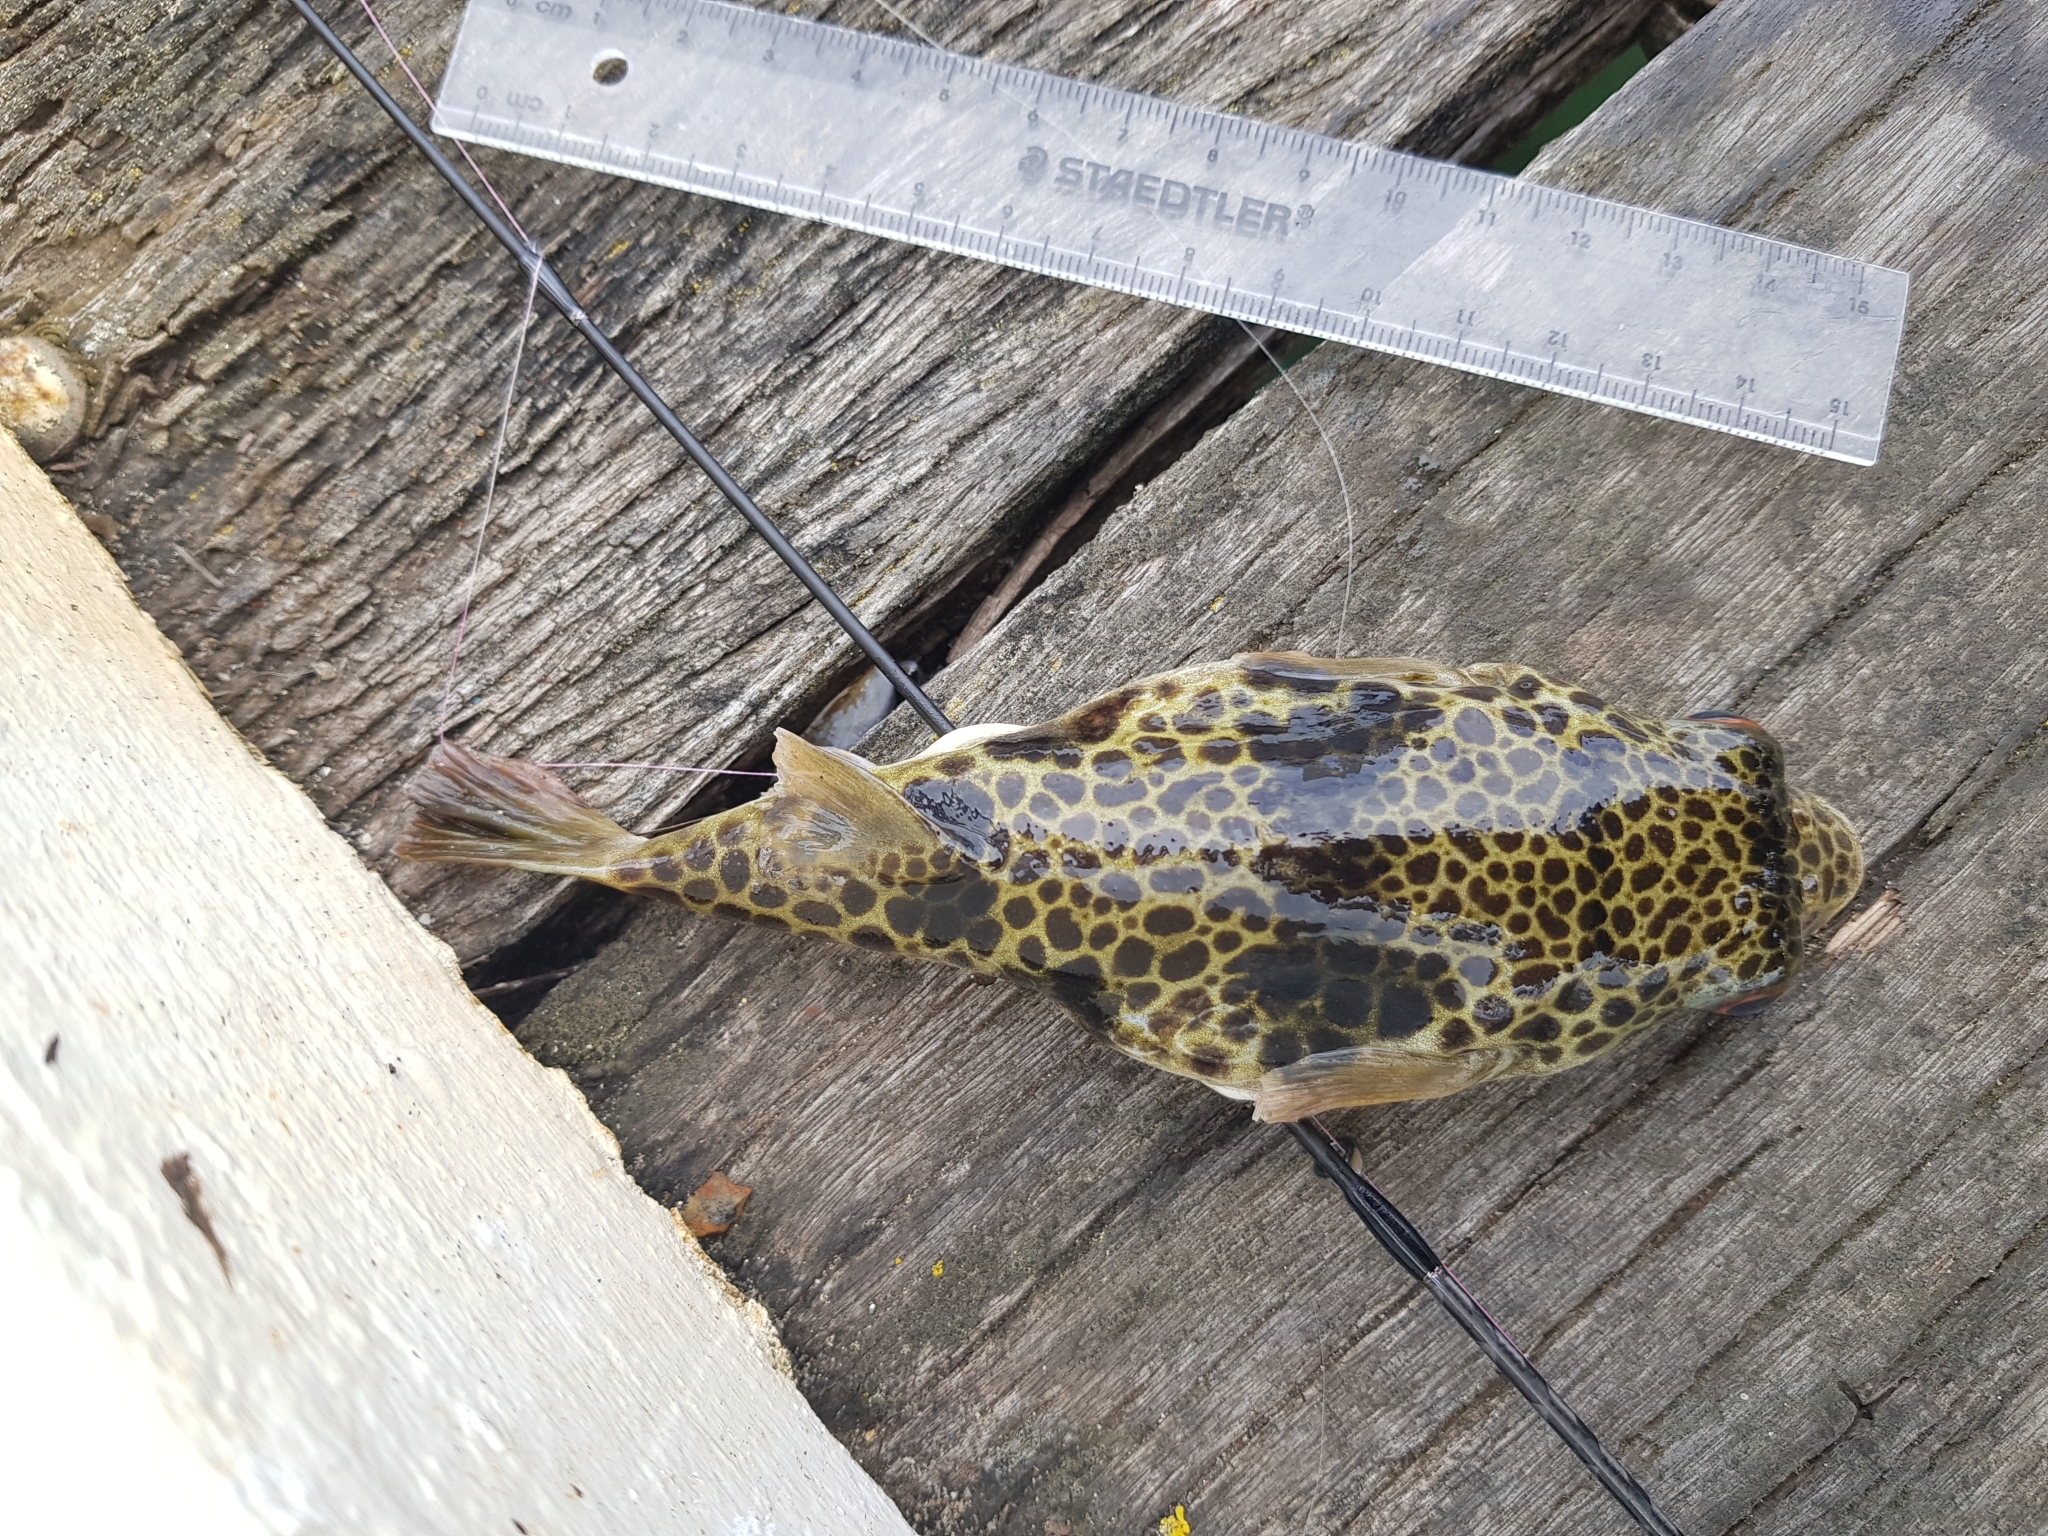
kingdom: Animalia
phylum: Chordata
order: Tetraodontiformes
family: Tetraodontidae
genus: Tetractenos
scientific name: Tetractenos glaber
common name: Smooth toadfish
